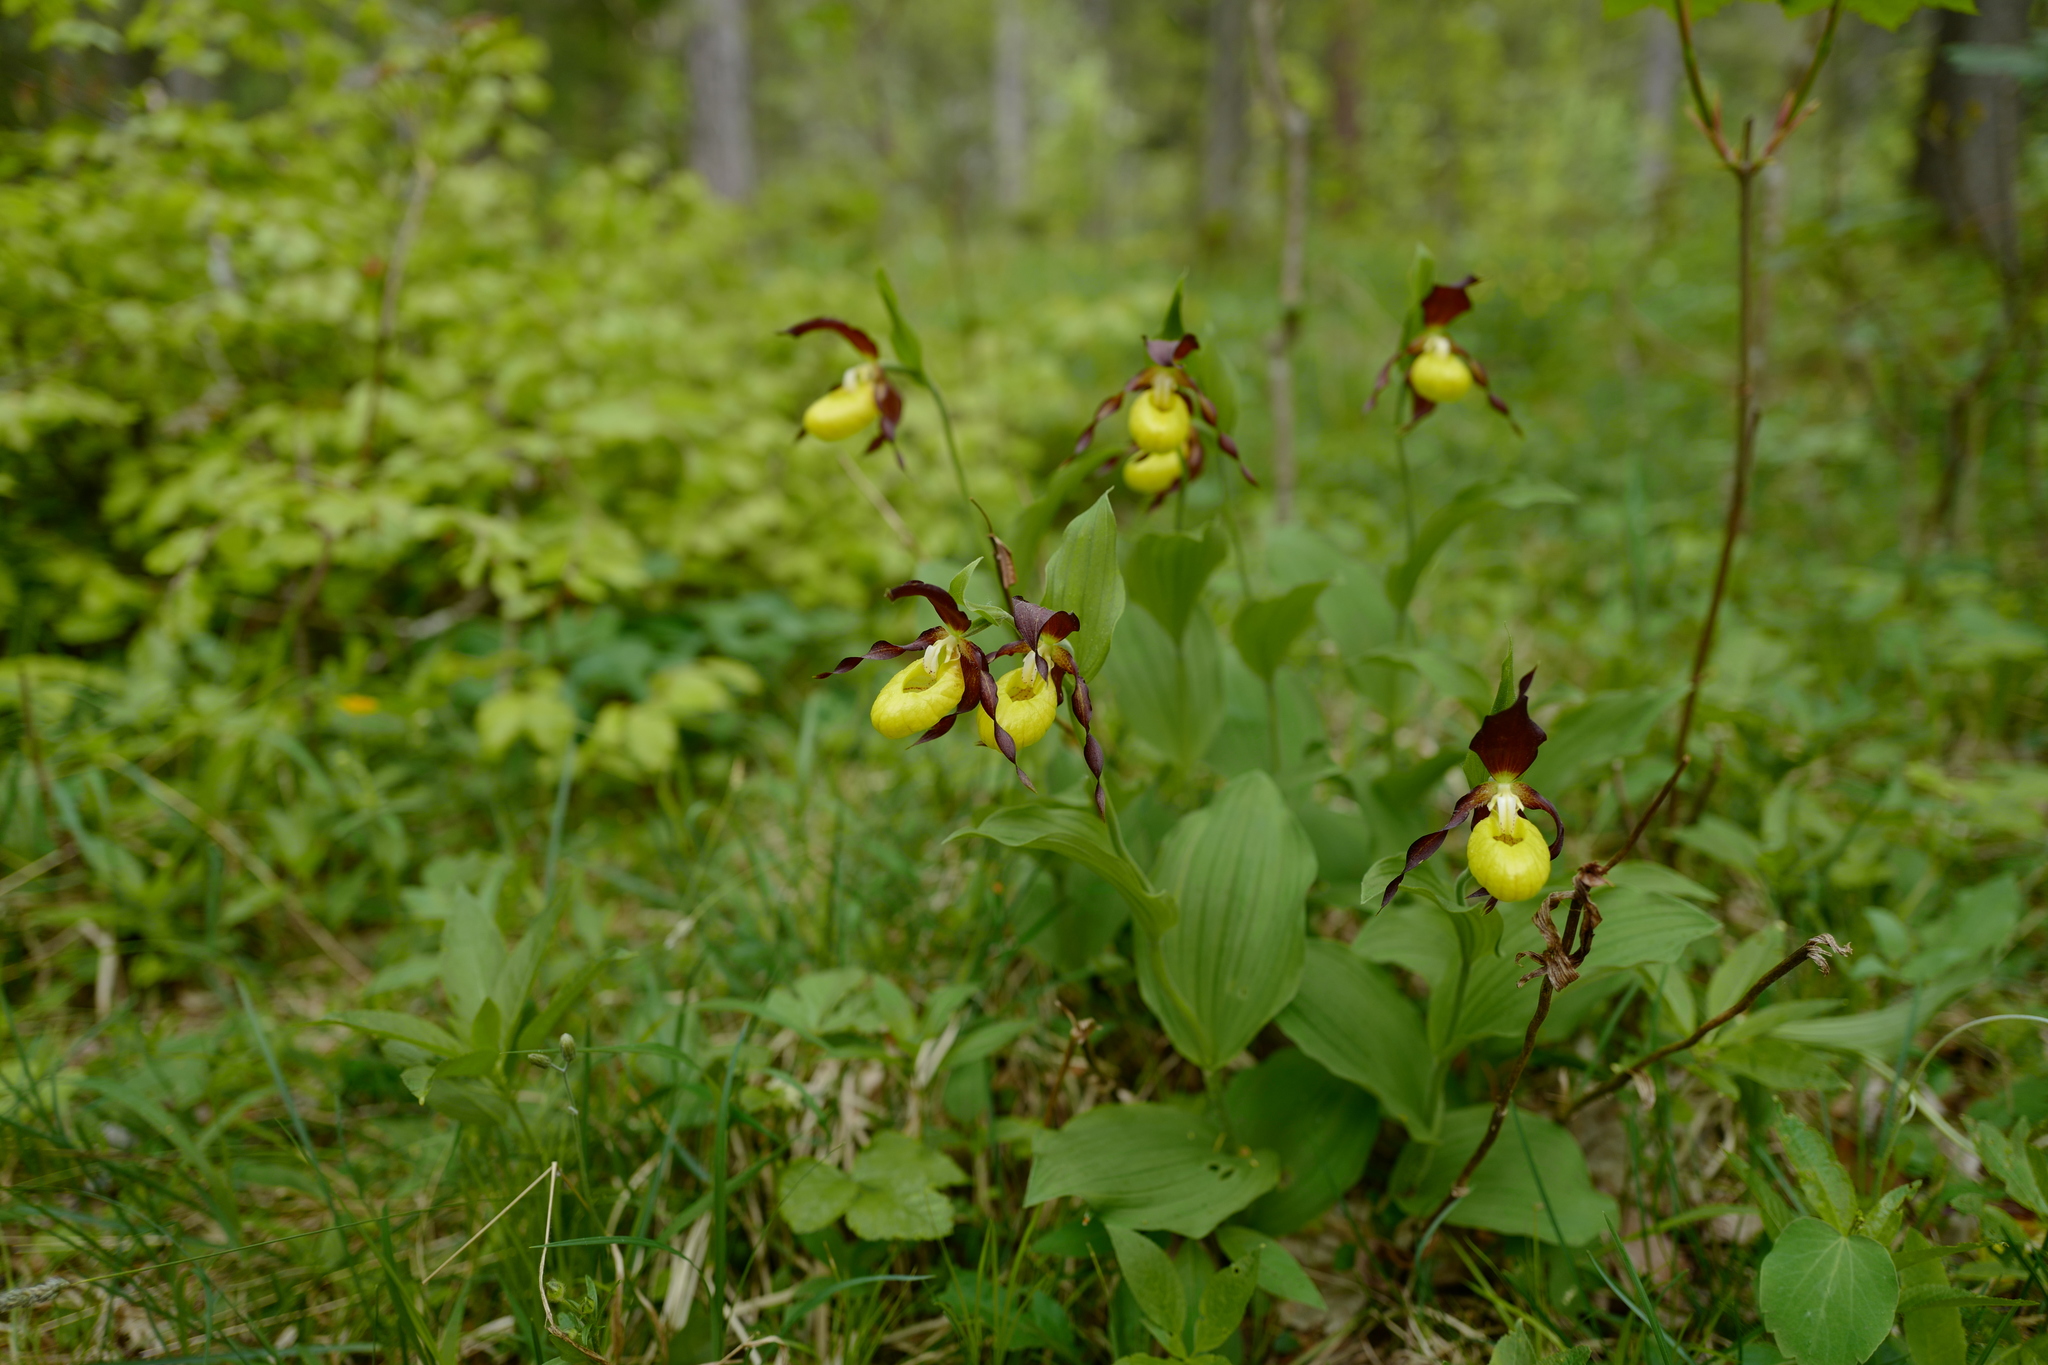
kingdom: Plantae
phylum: Tracheophyta
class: Liliopsida
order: Asparagales
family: Orchidaceae
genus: Cypripedium
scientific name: Cypripedium calceolus
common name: Lady's-slipper
